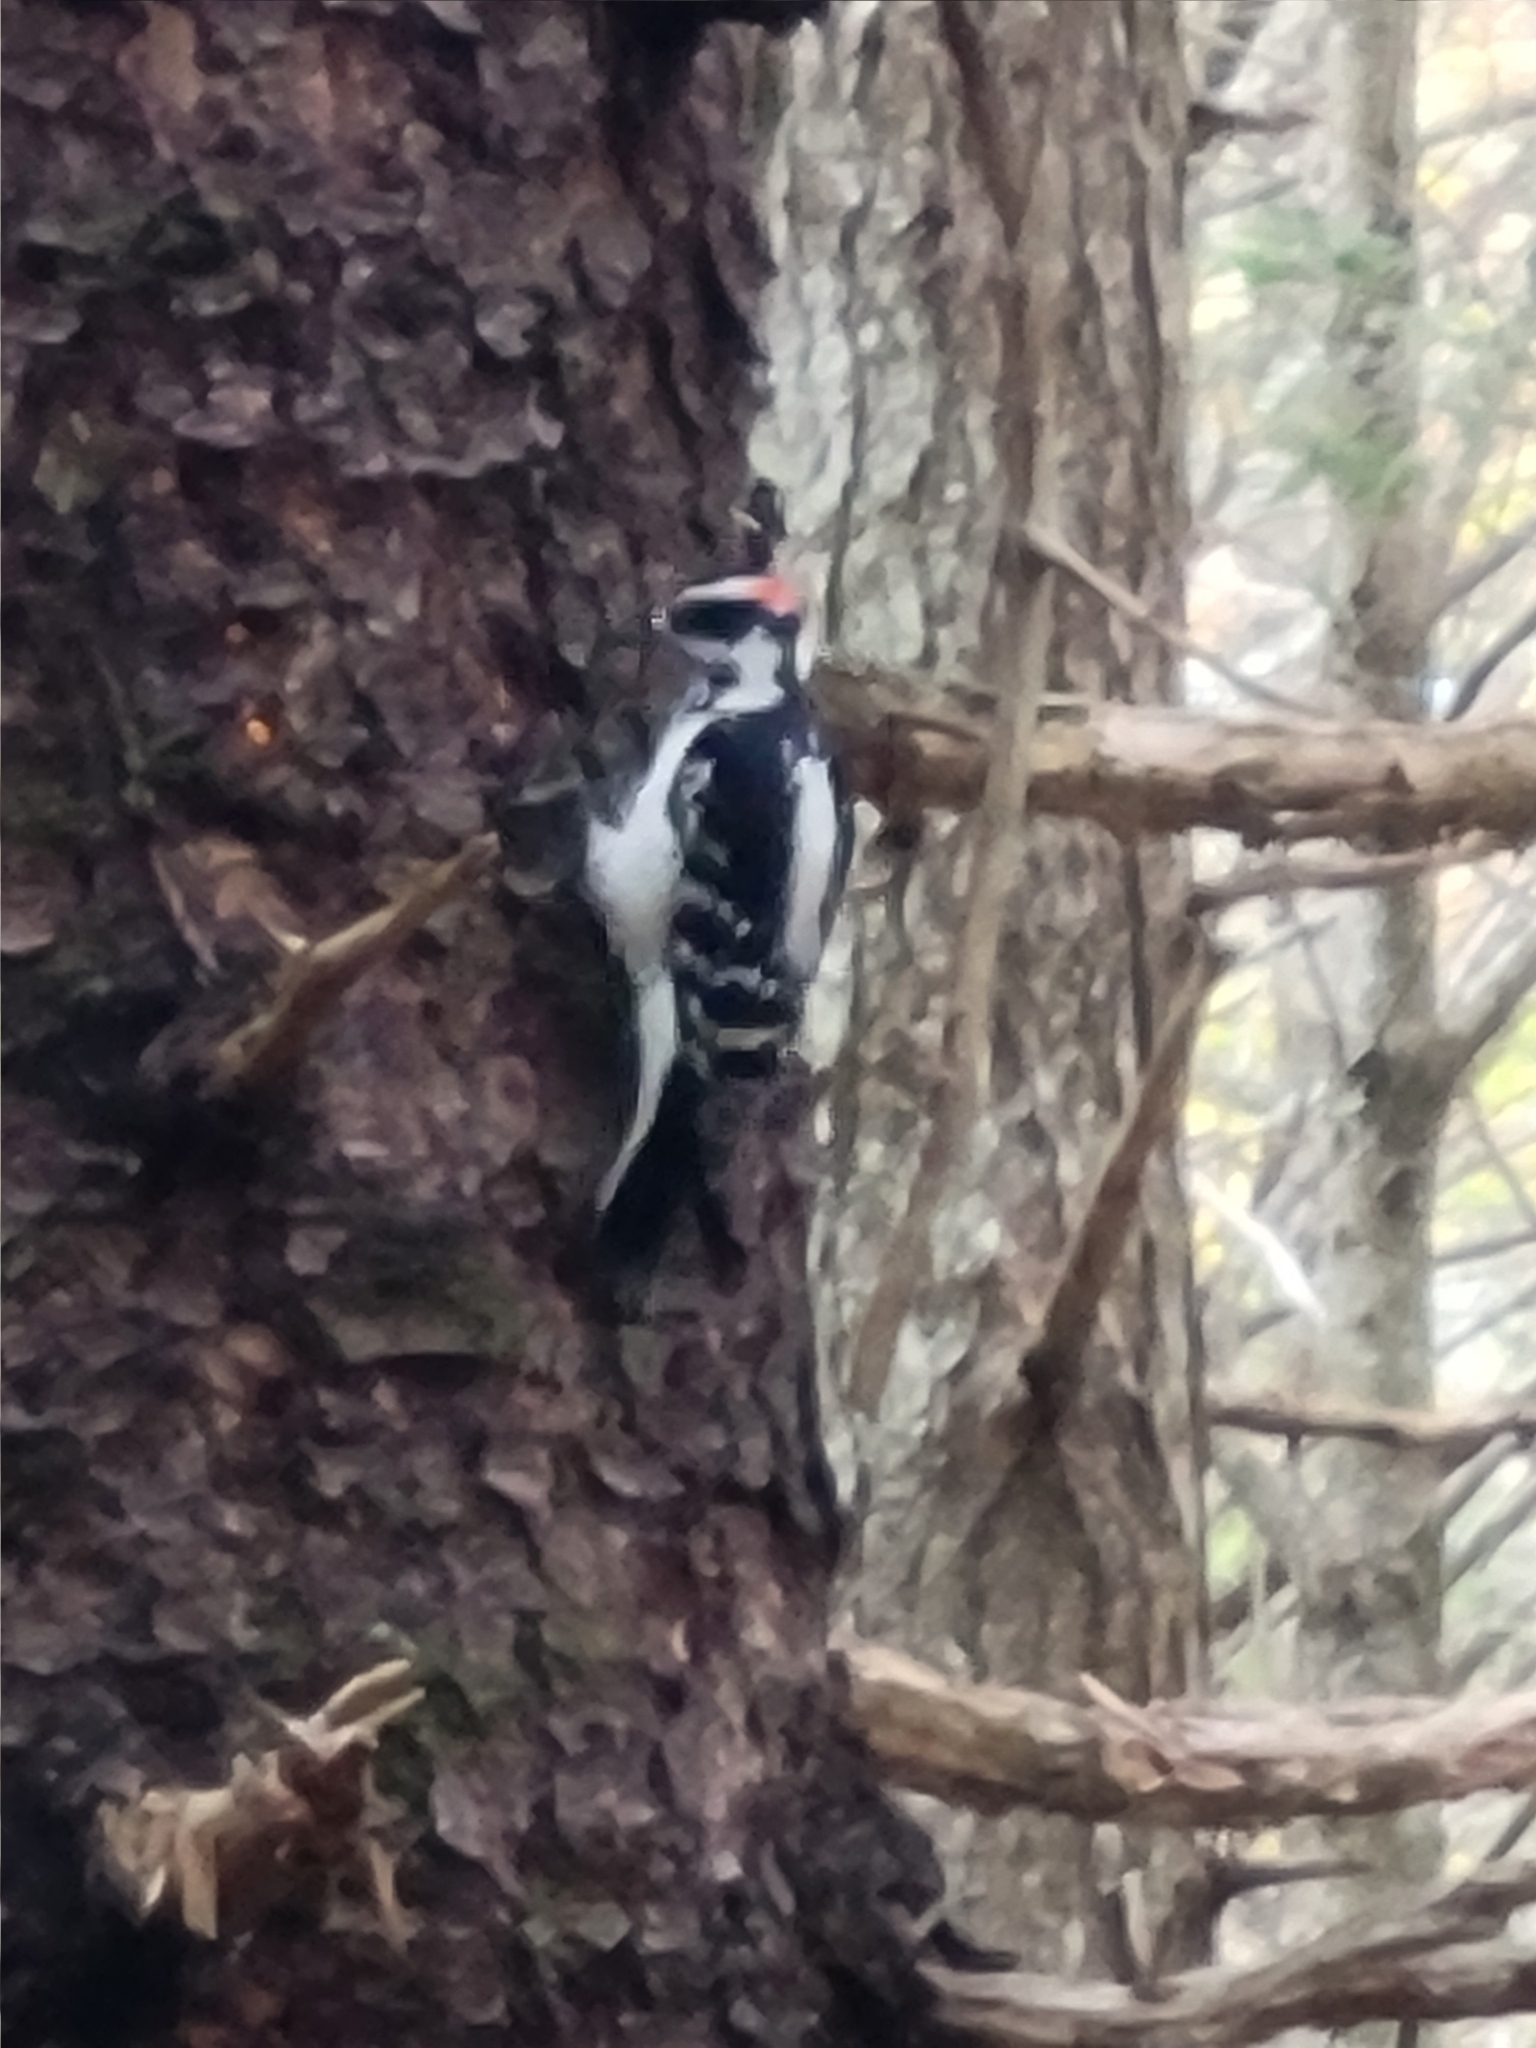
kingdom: Animalia
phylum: Chordata
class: Aves
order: Piciformes
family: Picidae
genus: Leuconotopicus
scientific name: Leuconotopicus villosus
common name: Hairy woodpecker
